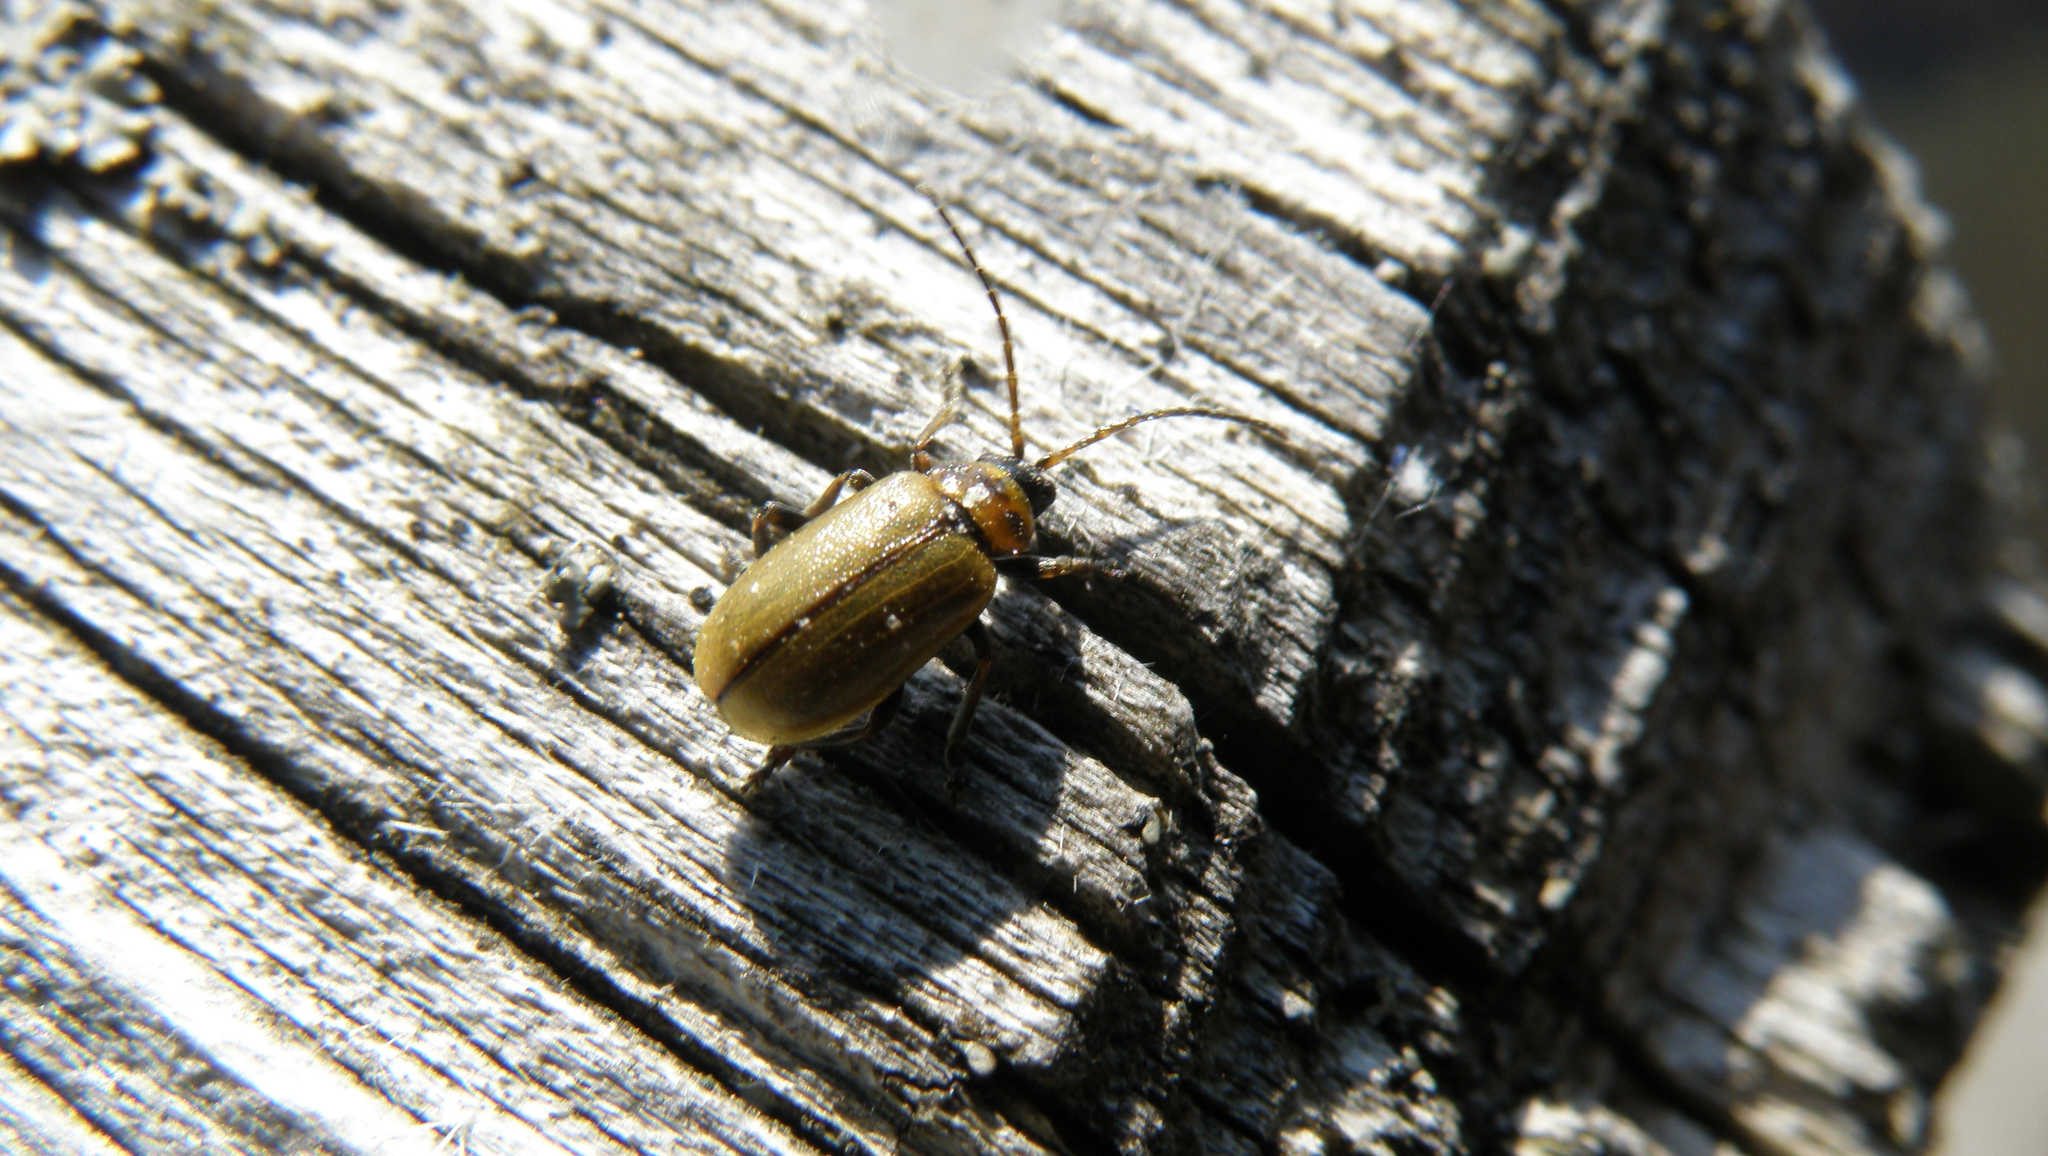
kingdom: Animalia
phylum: Arthropoda
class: Insecta
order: Coleoptera
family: Chrysomelidae
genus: Lochmaea
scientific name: Lochmaea suturalis
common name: Heather beetle
